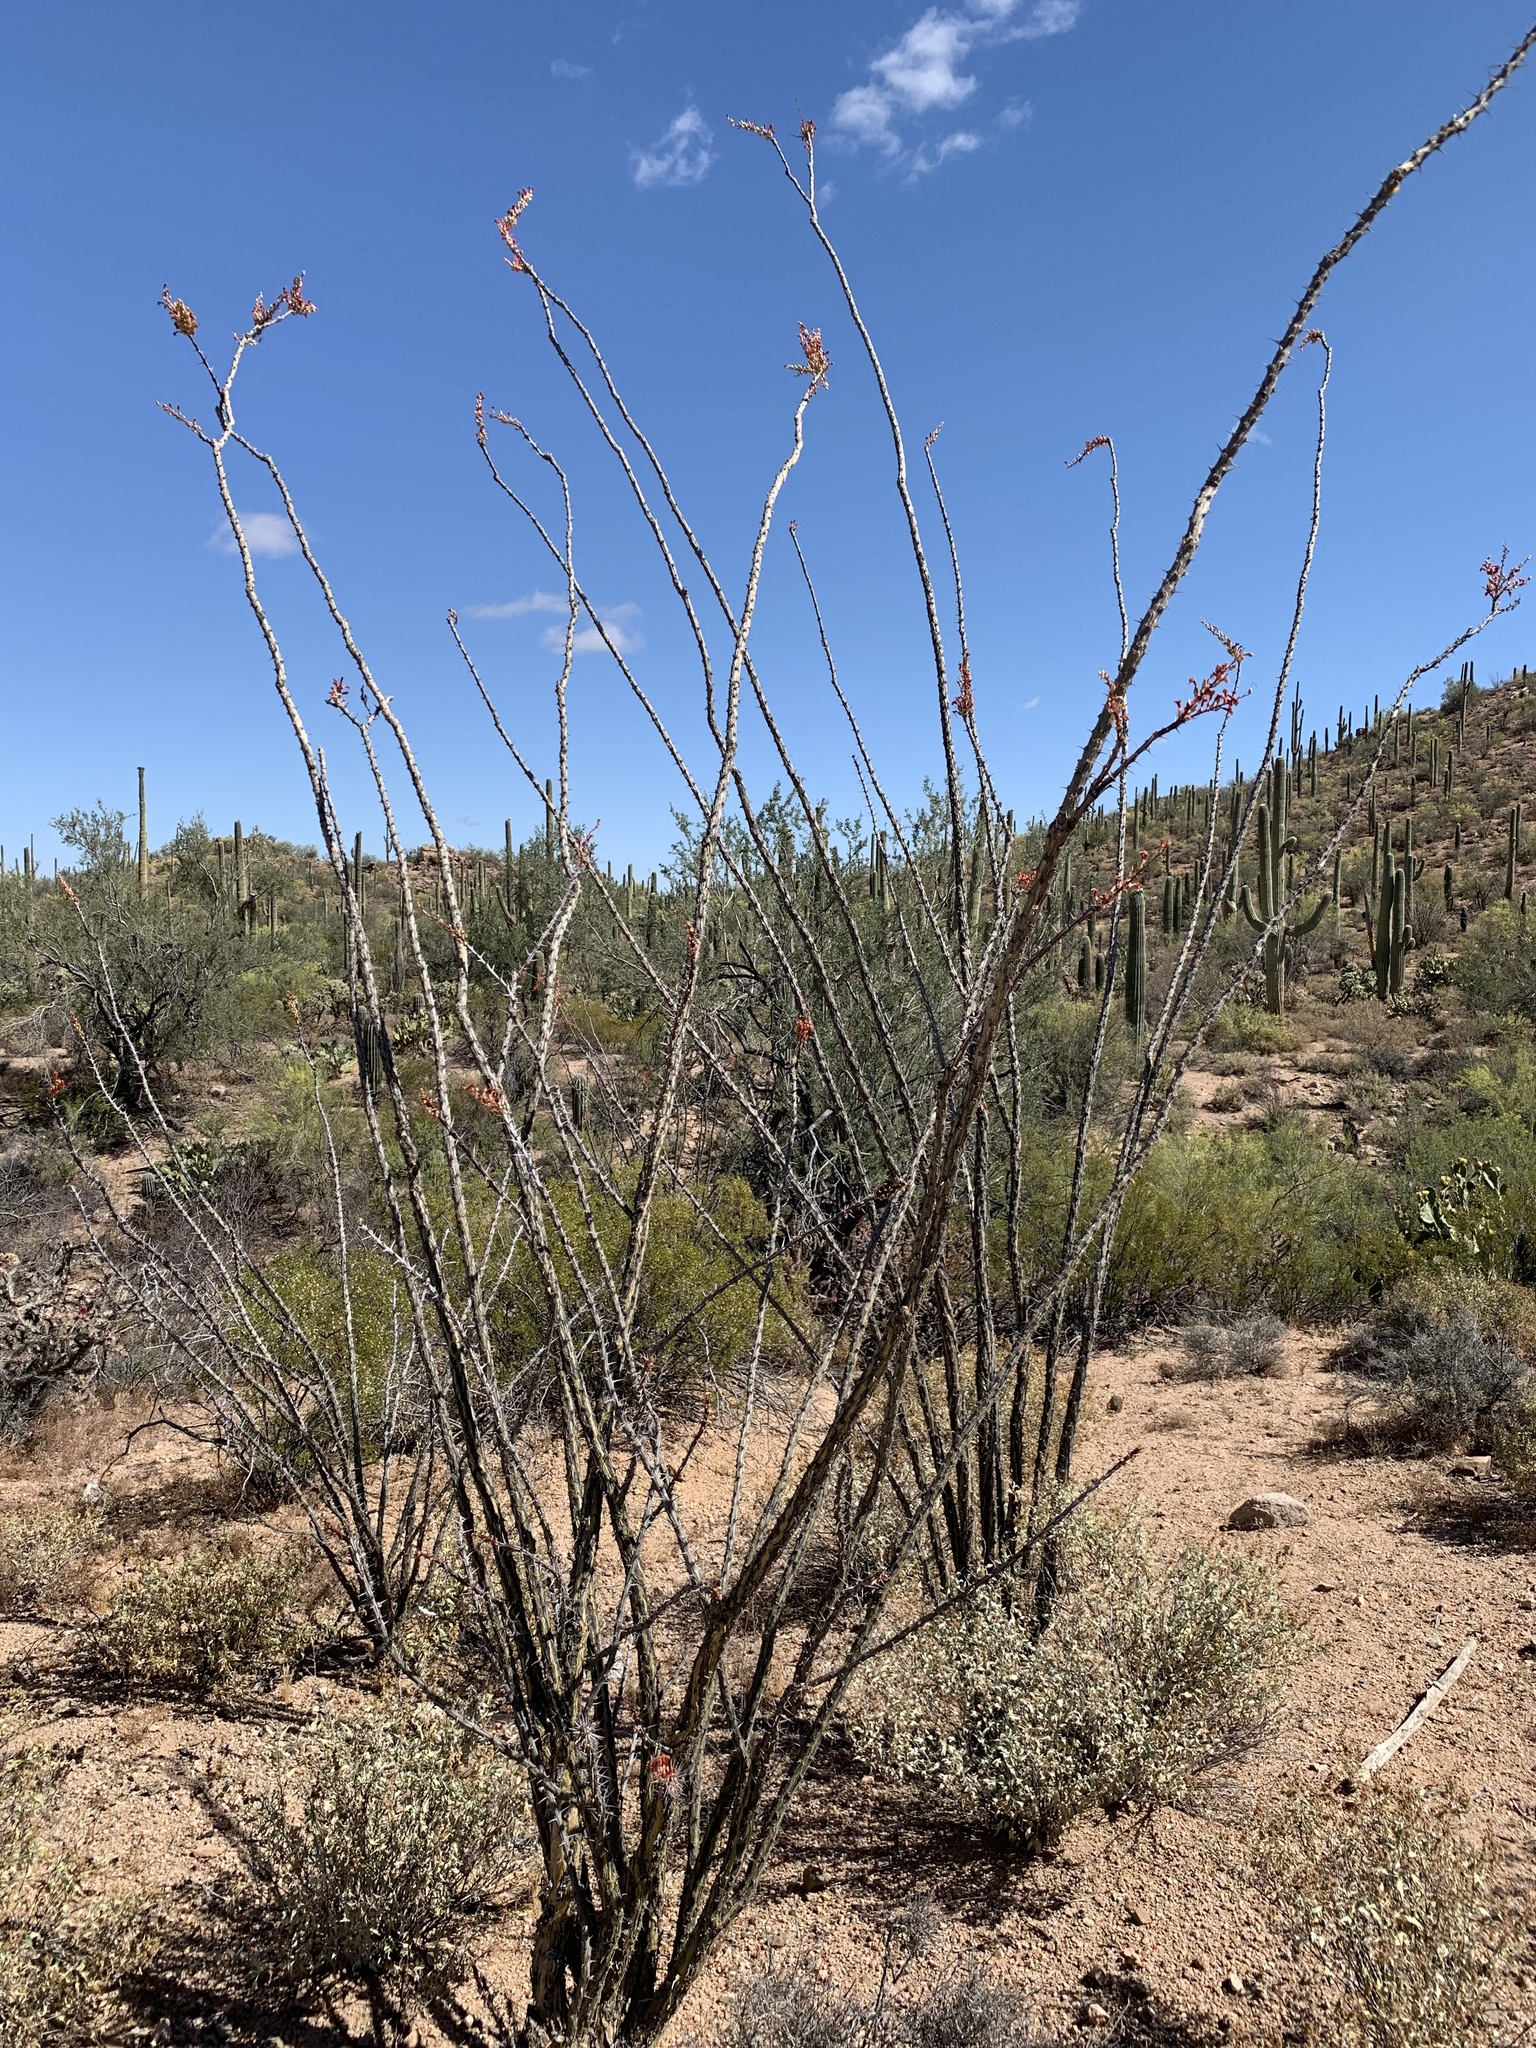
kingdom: Plantae
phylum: Tracheophyta
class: Magnoliopsida
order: Ericales
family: Fouquieriaceae
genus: Fouquieria
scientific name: Fouquieria splendens
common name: Vine-cactus
